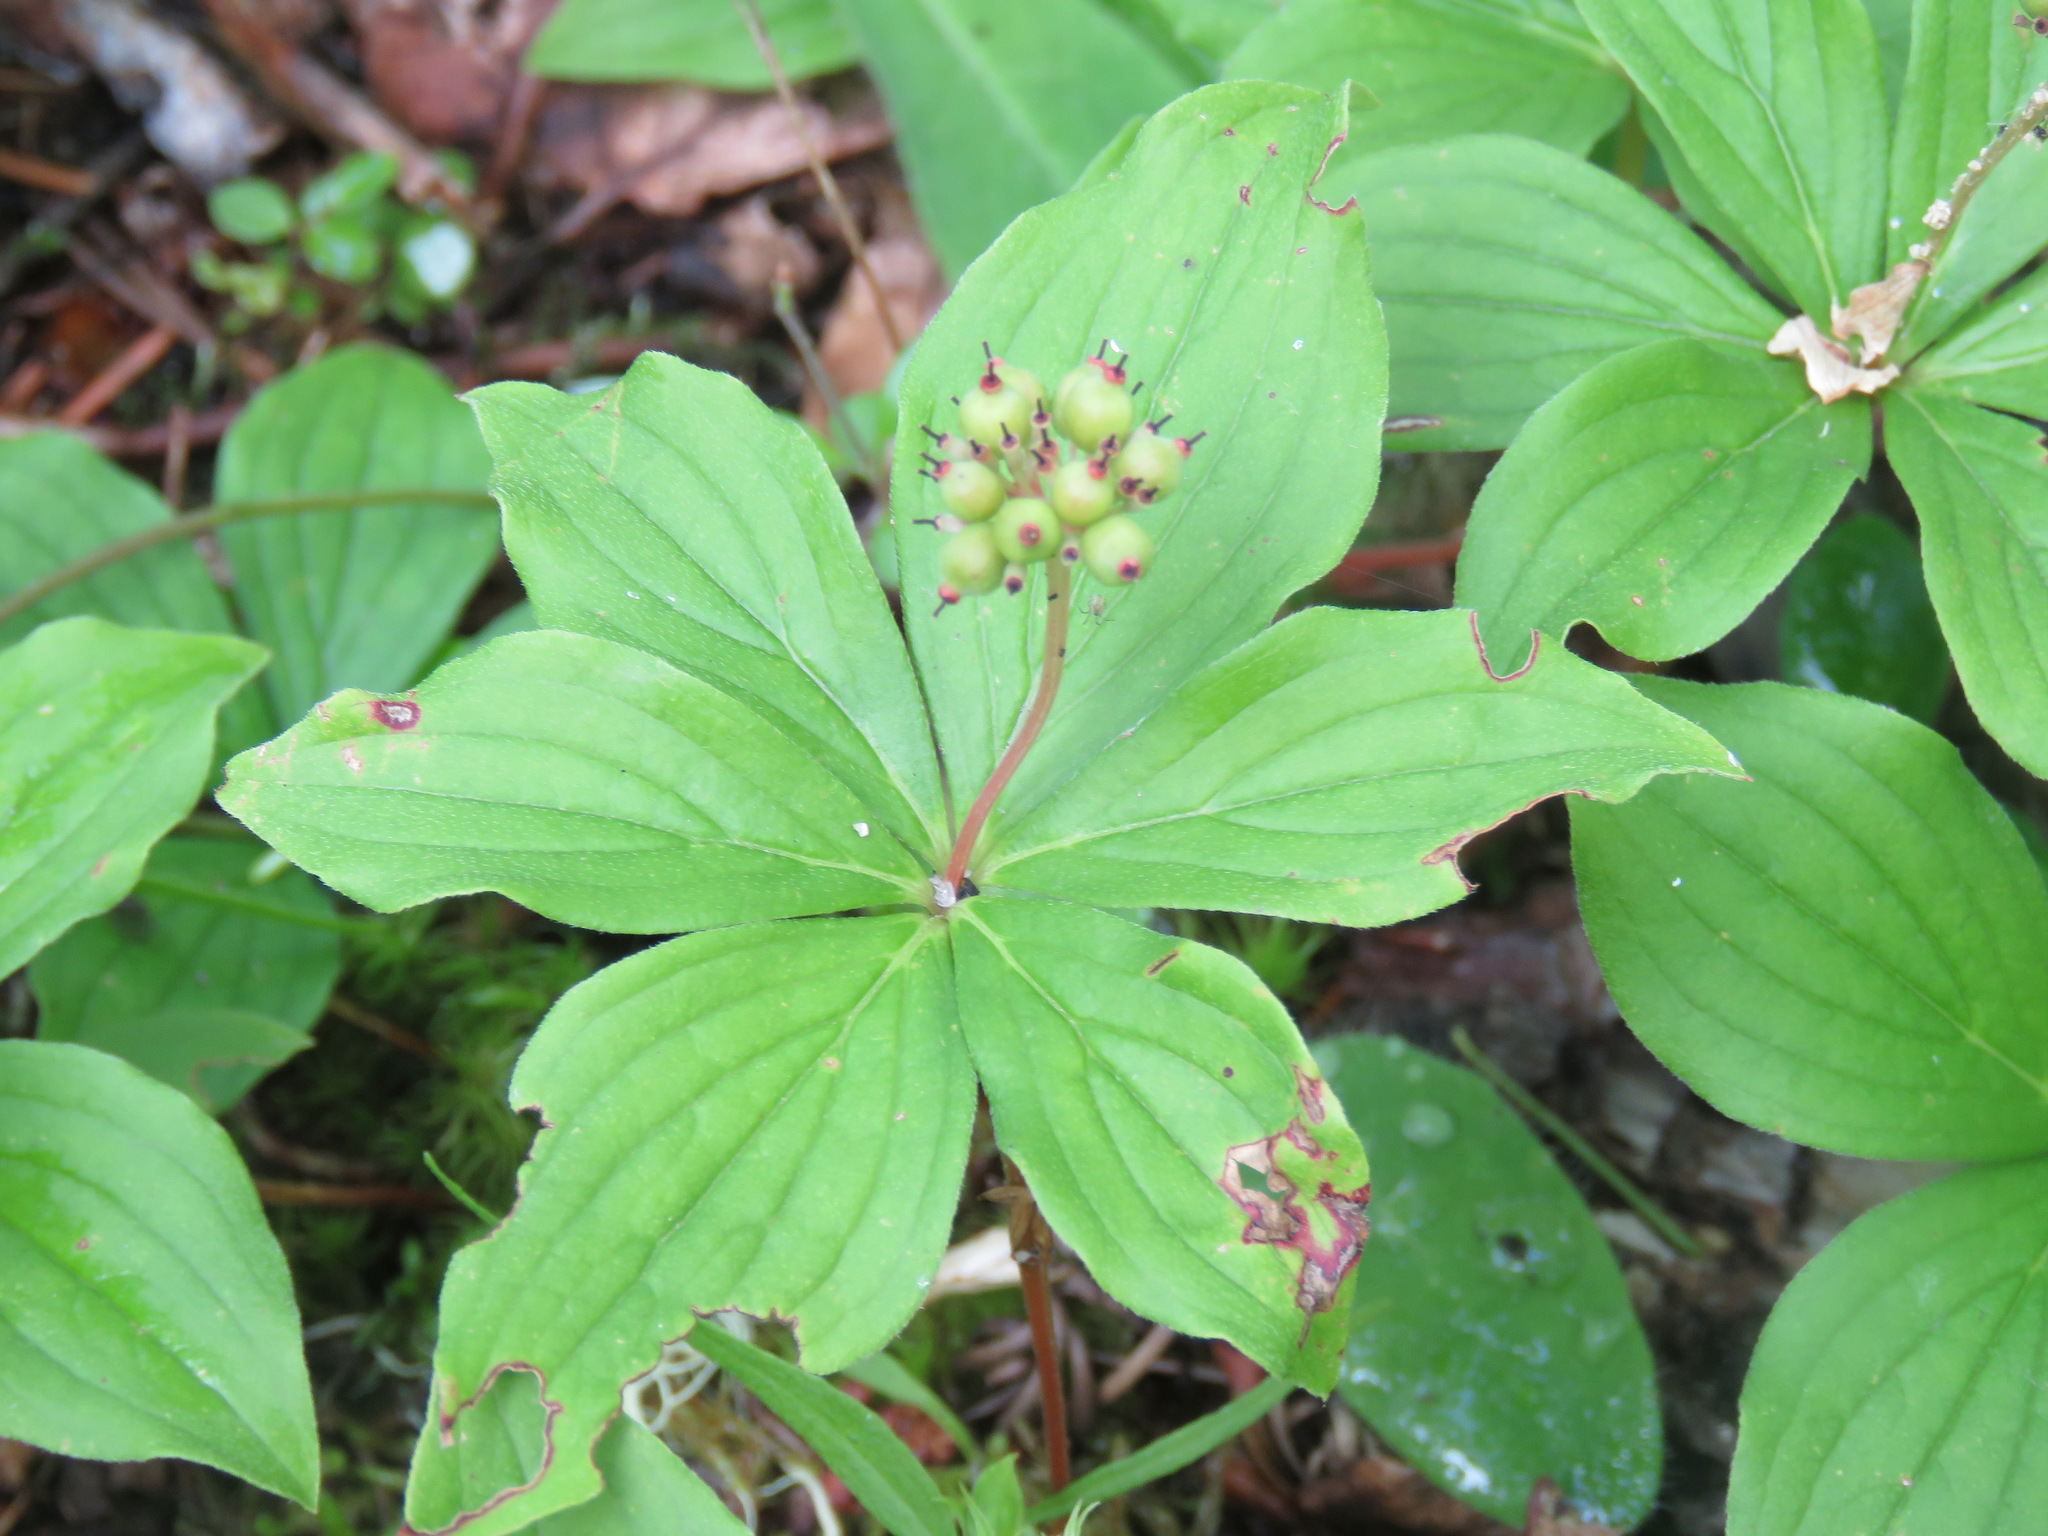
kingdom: Plantae
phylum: Tracheophyta
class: Magnoliopsida
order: Cornales
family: Cornaceae
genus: Cornus
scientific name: Cornus canadensis
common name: Creeping dogwood
